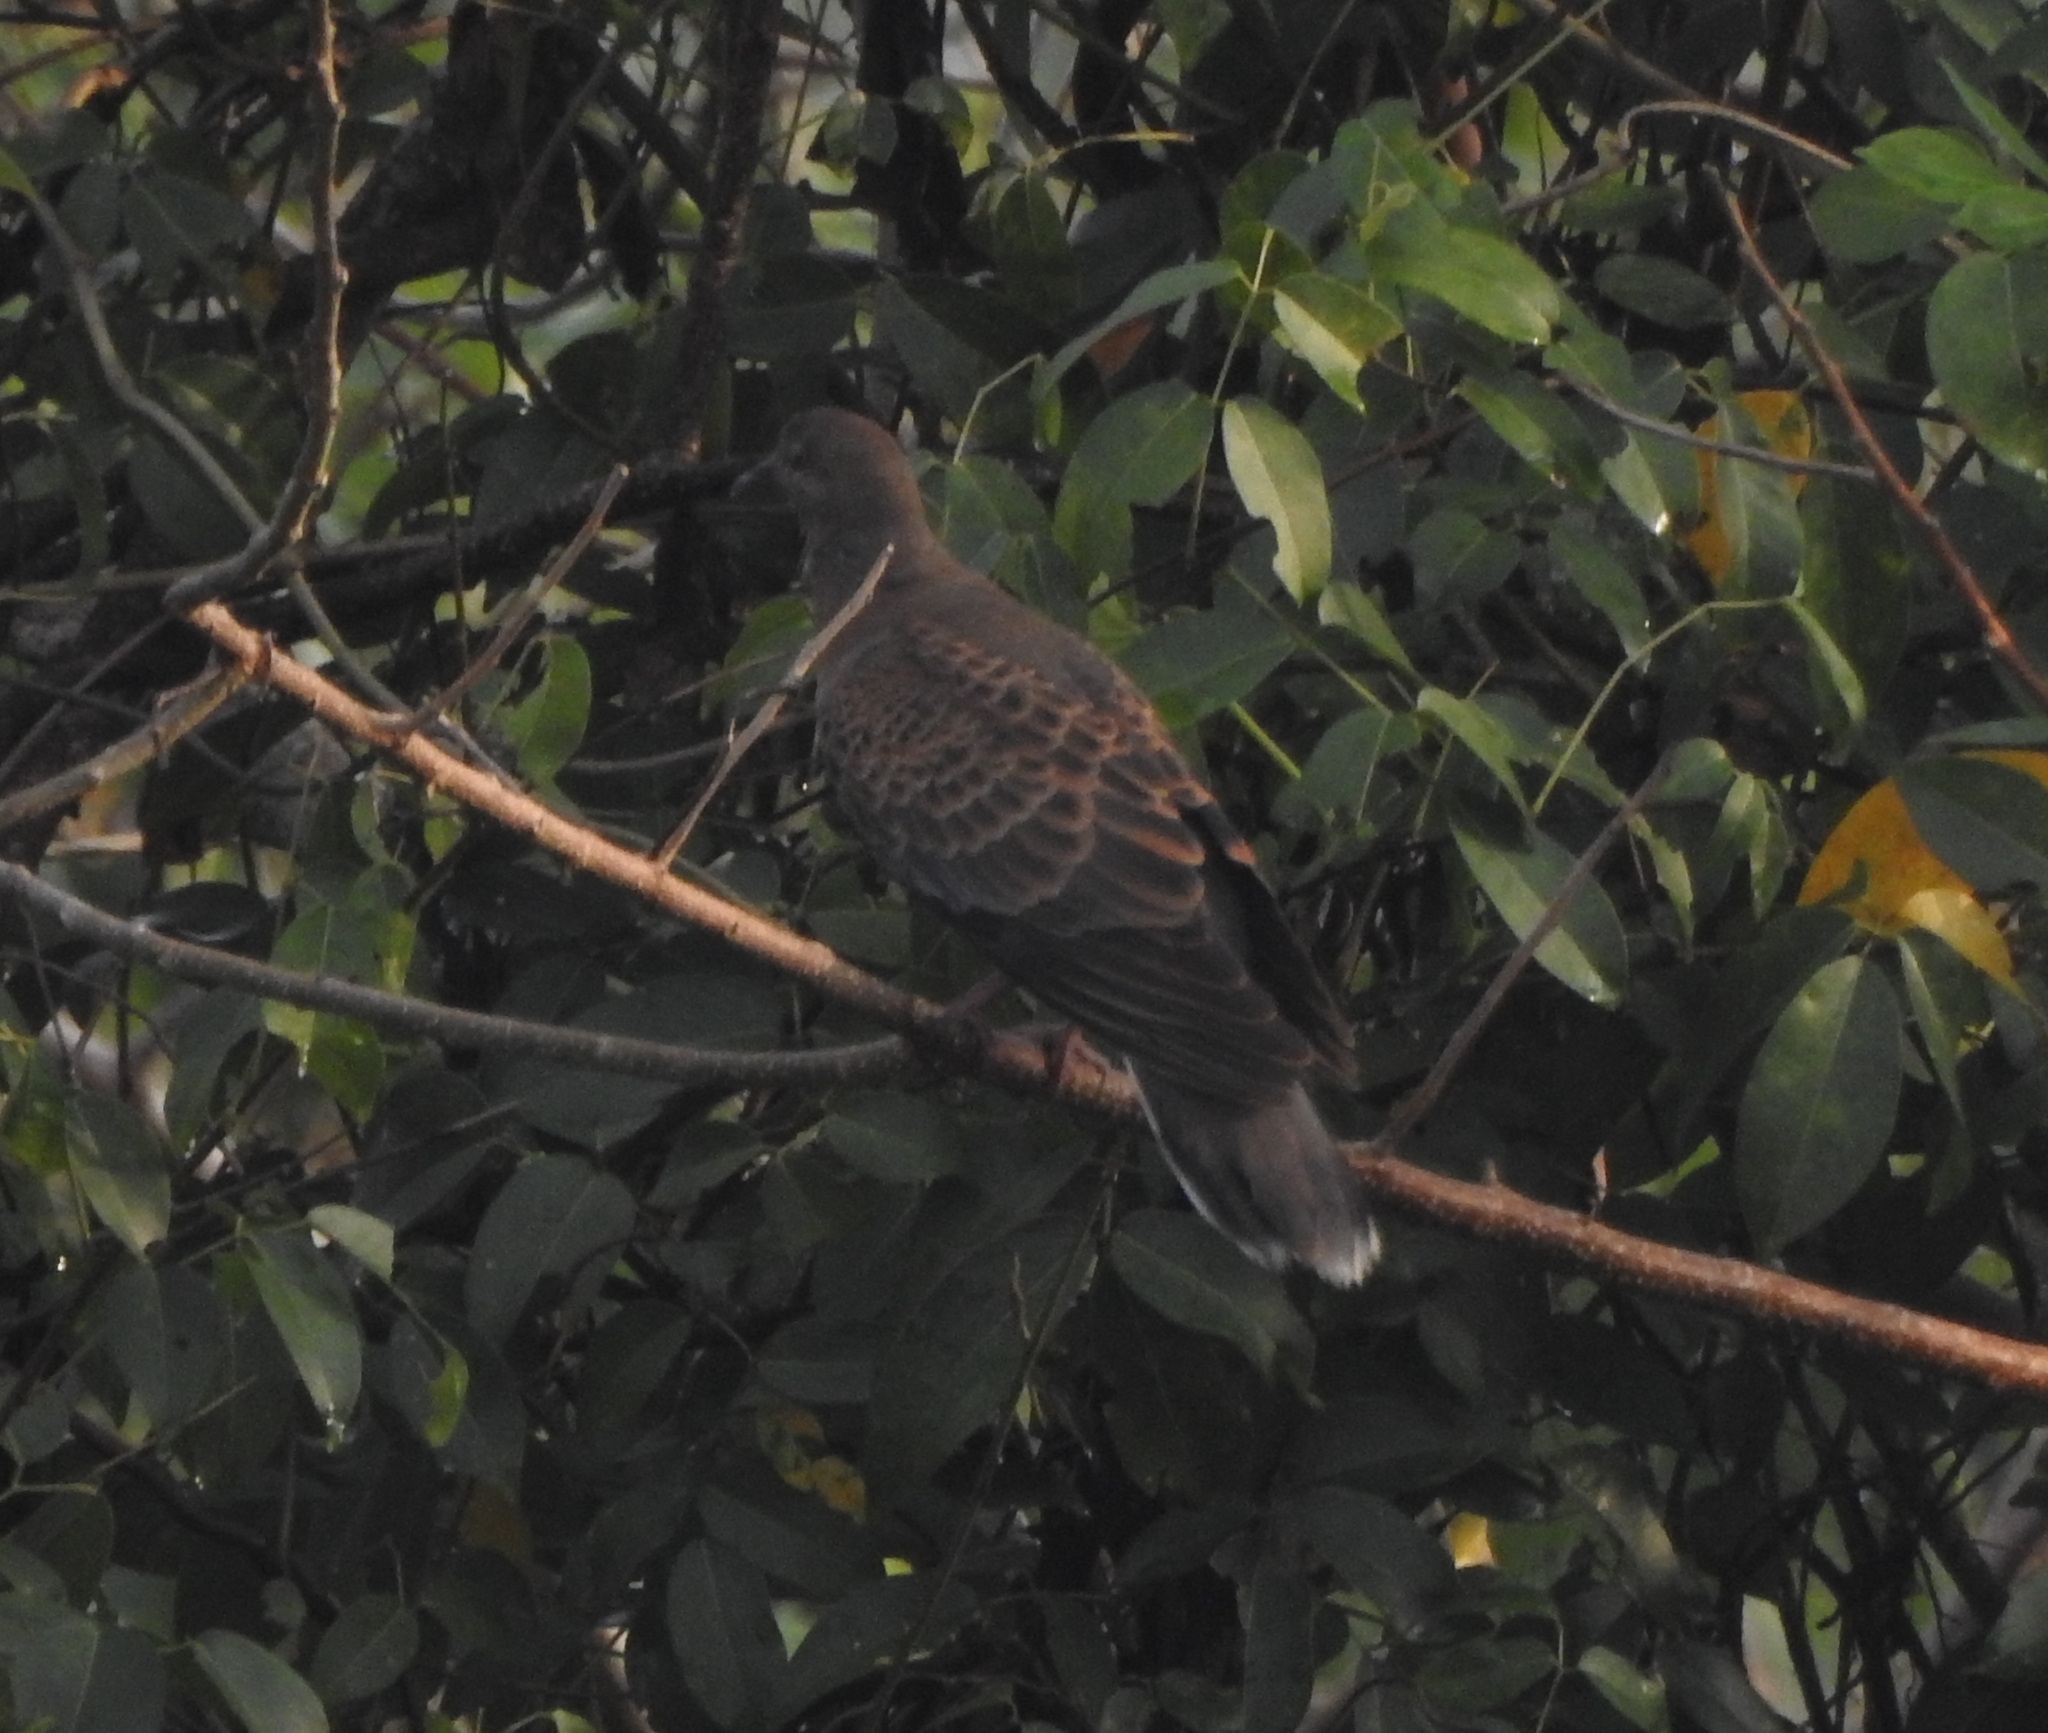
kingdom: Animalia
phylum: Chordata
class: Aves
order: Columbiformes
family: Columbidae
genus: Streptopelia
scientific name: Streptopelia orientalis
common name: Oriental turtle dove
